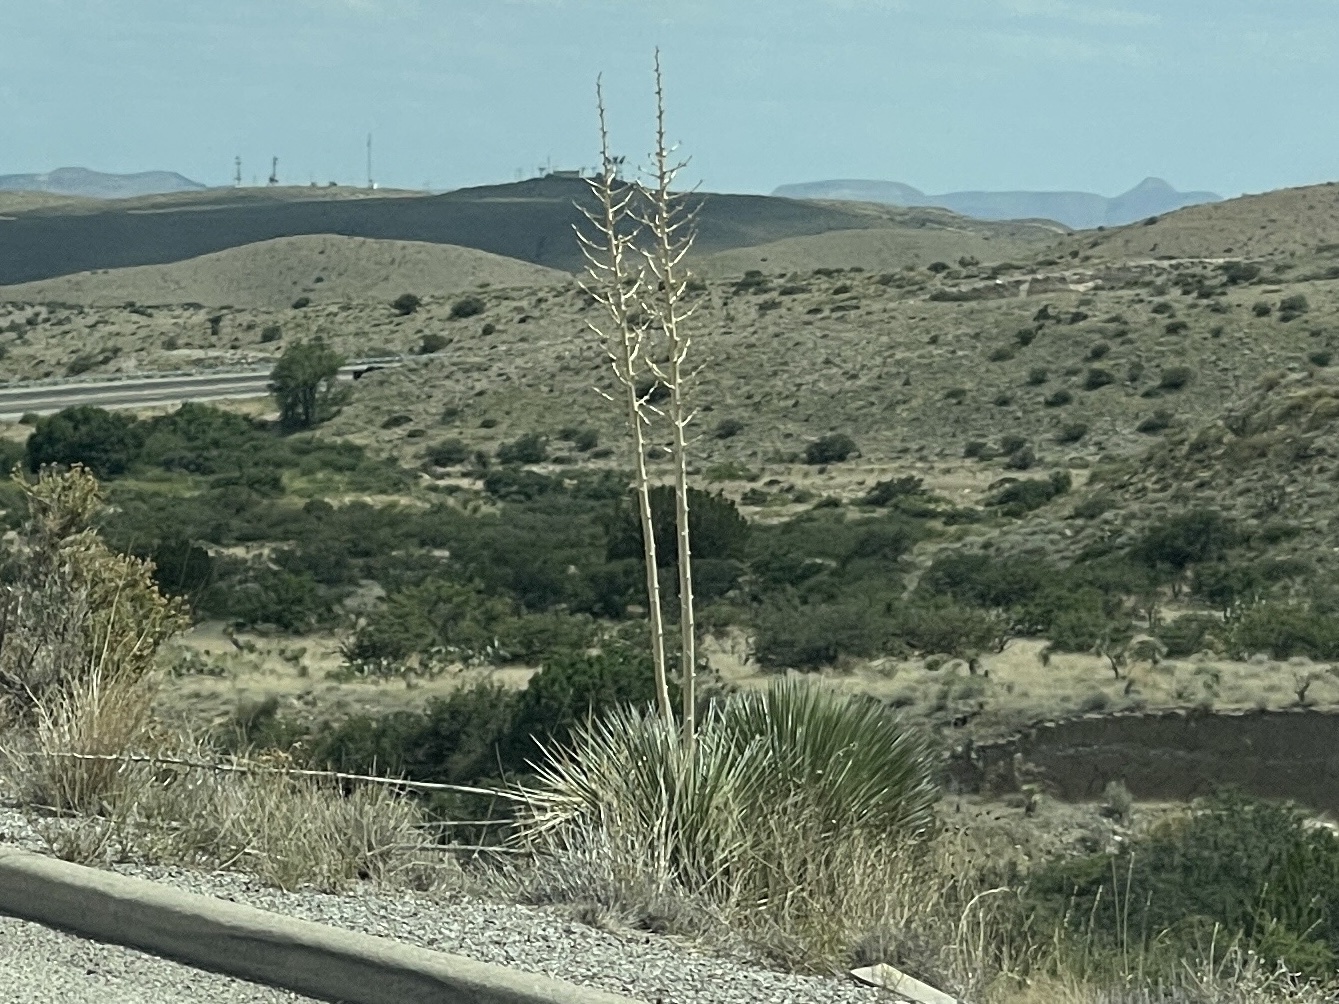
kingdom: Plantae
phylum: Tracheophyta
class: Liliopsida
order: Asparagales
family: Asparagaceae
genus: Yucca
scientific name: Yucca elata
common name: Palmella
